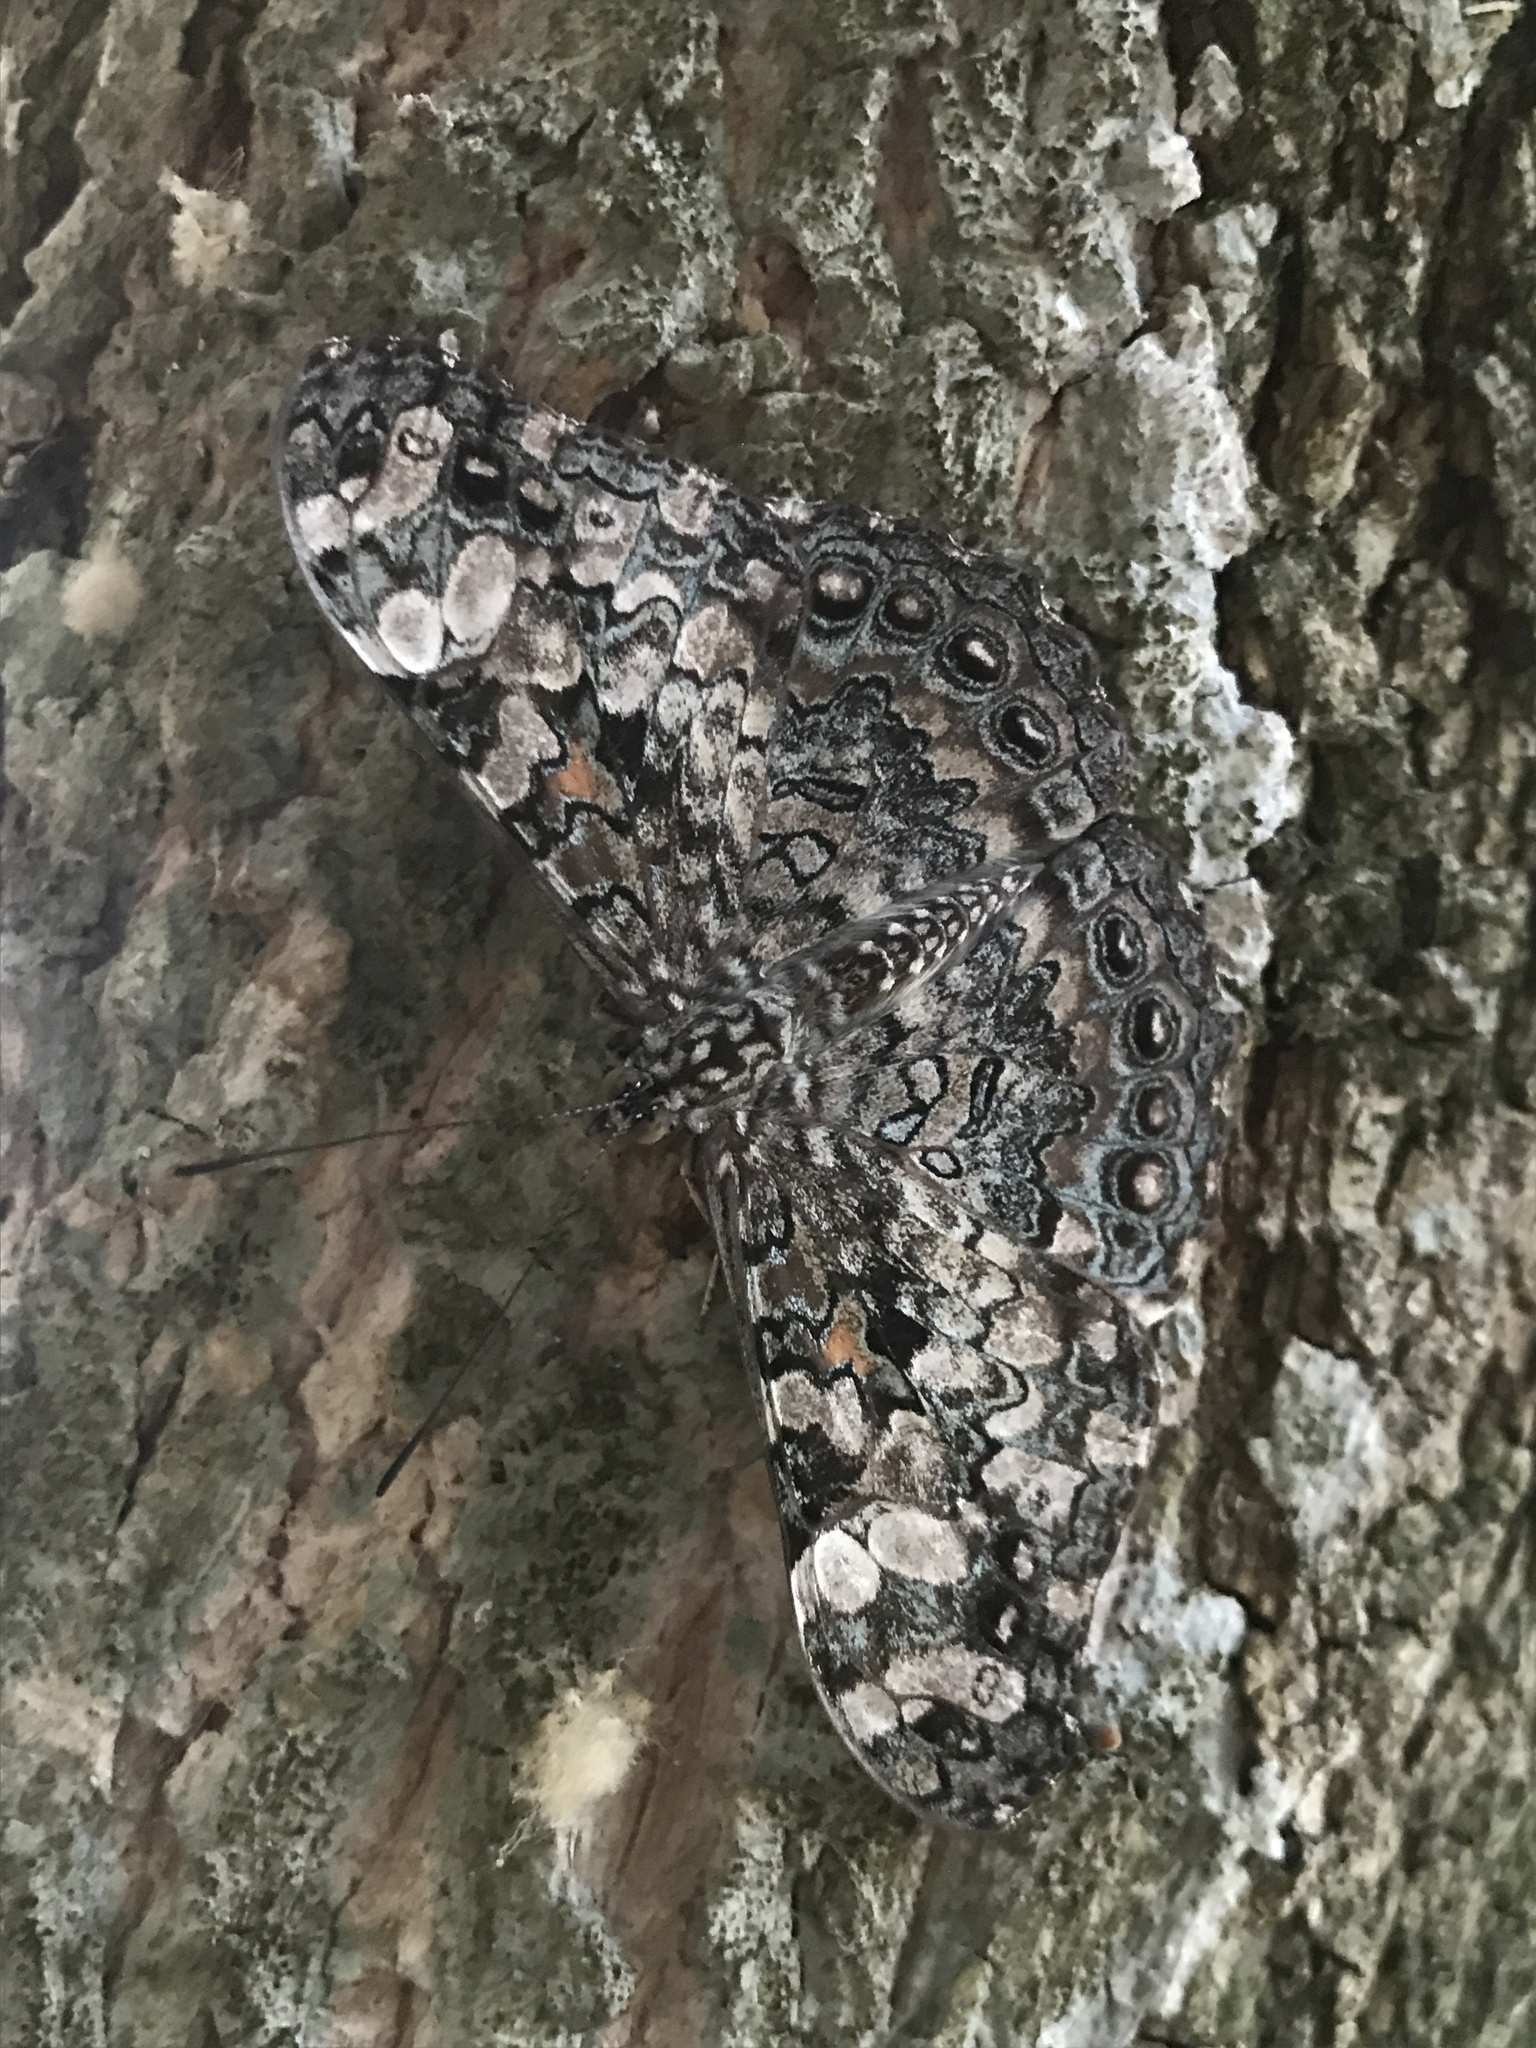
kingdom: Animalia
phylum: Arthropoda
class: Insecta
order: Lepidoptera
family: Nymphalidae
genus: Hamadryas
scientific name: Hamadryas epinome
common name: Epinome cracker
